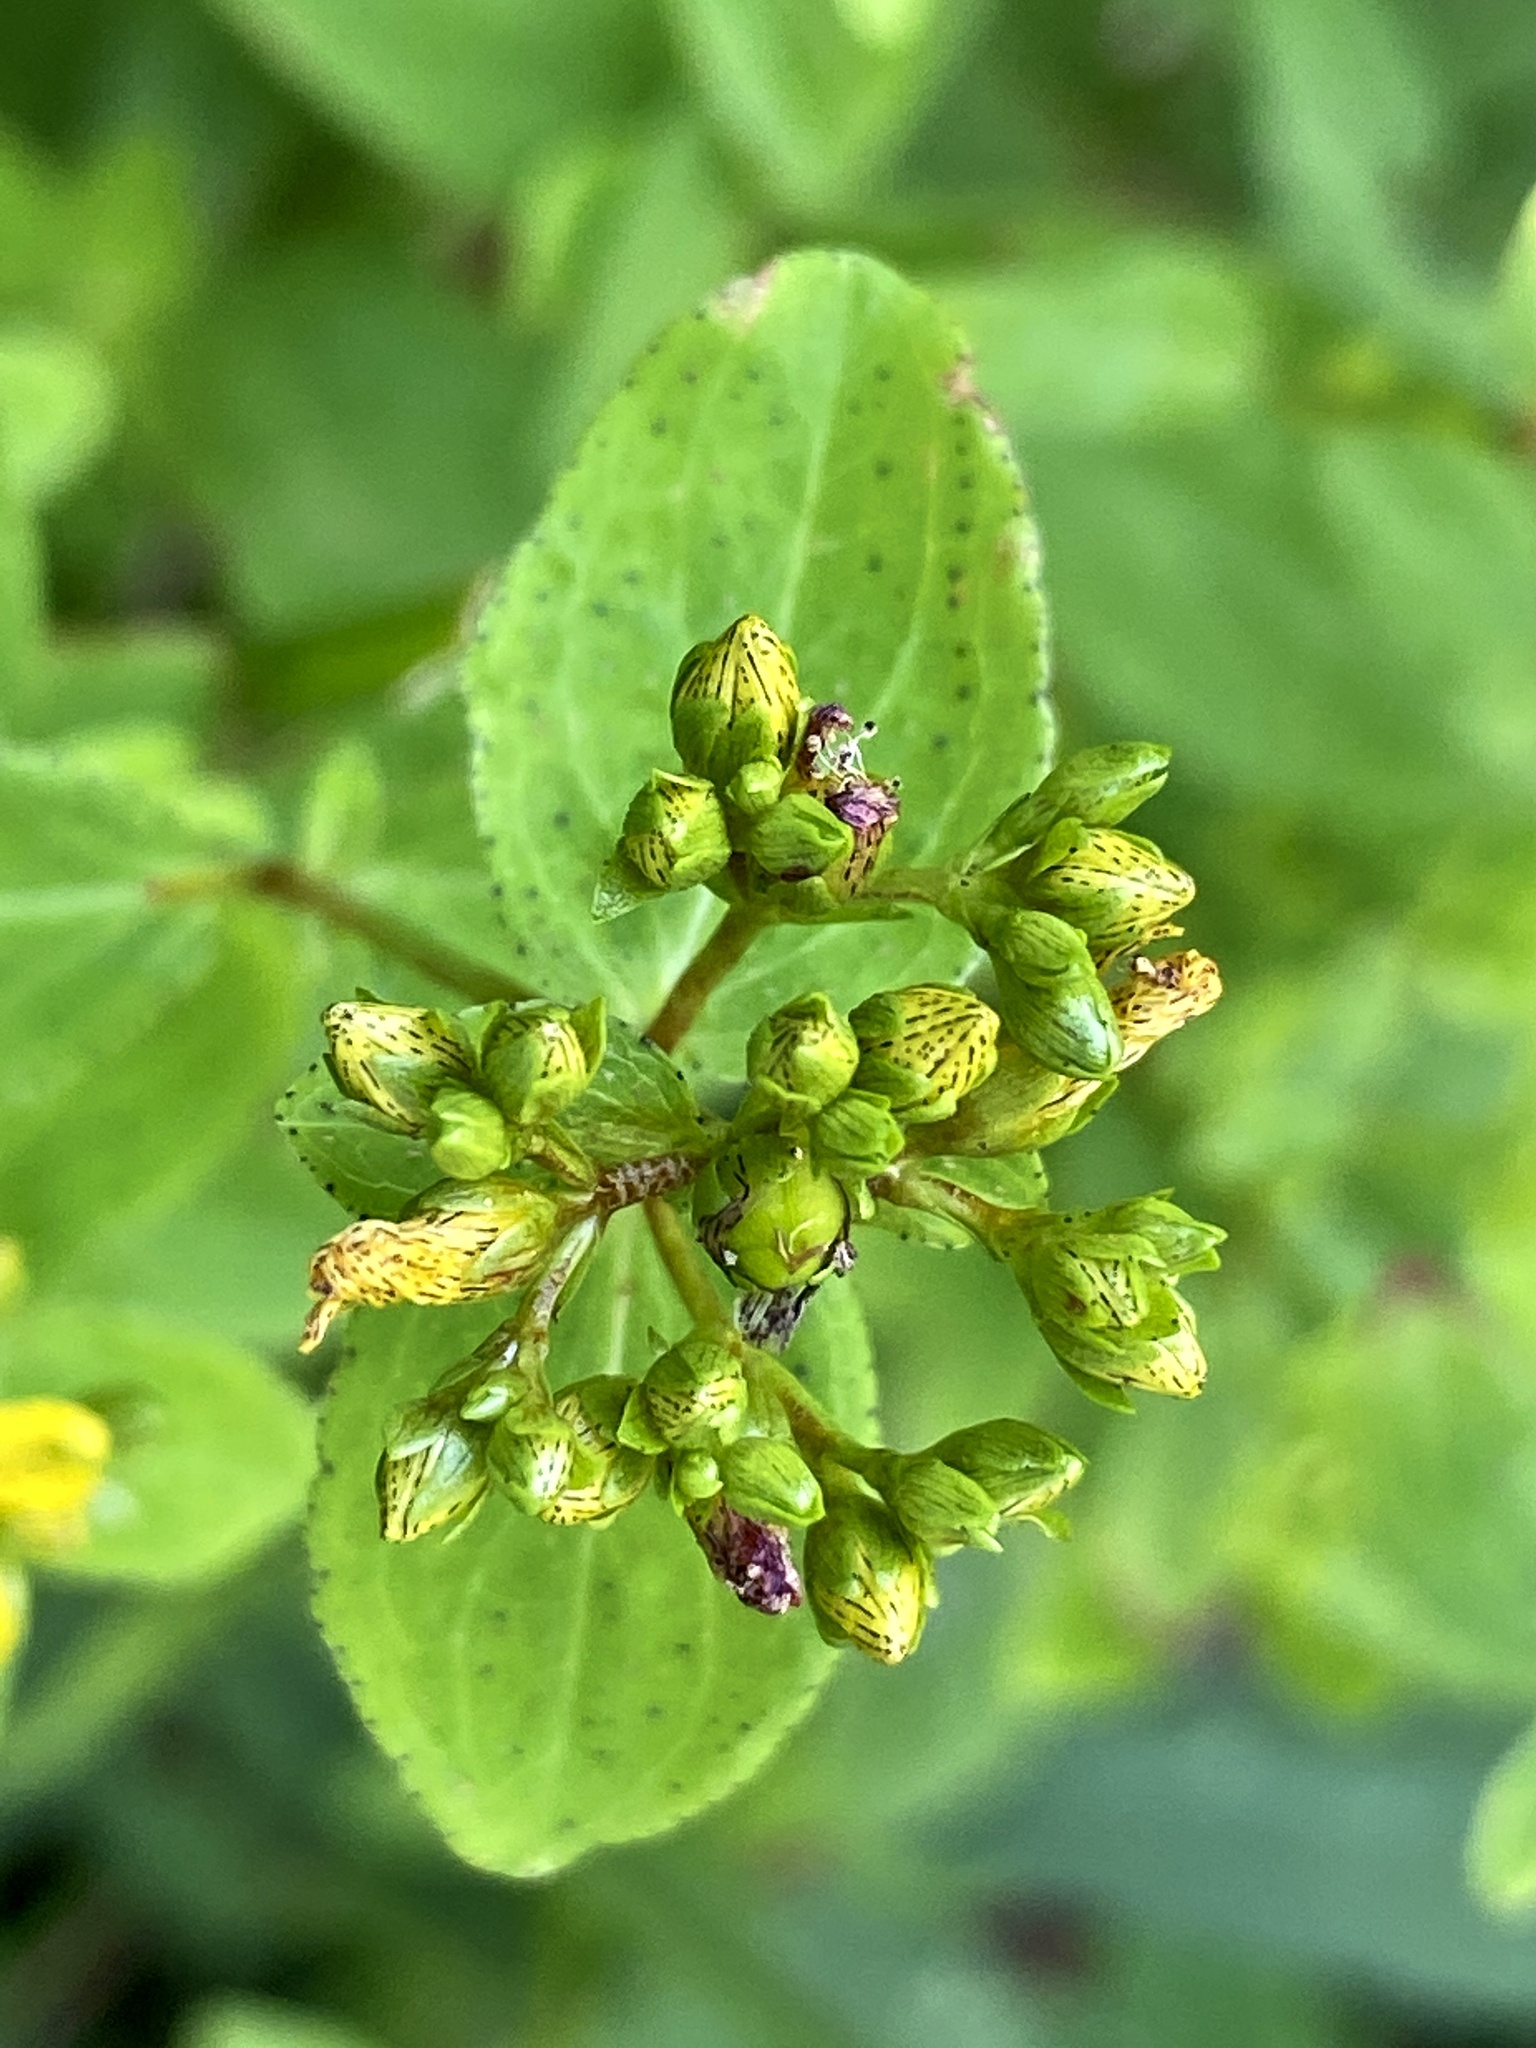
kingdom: Plantae
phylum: Tracheophyta
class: Magnoliopsida
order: Malpighiales
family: Hypericaceae
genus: Hypericum
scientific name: Hypericum punctatum
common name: Spotted st. john's-wort
